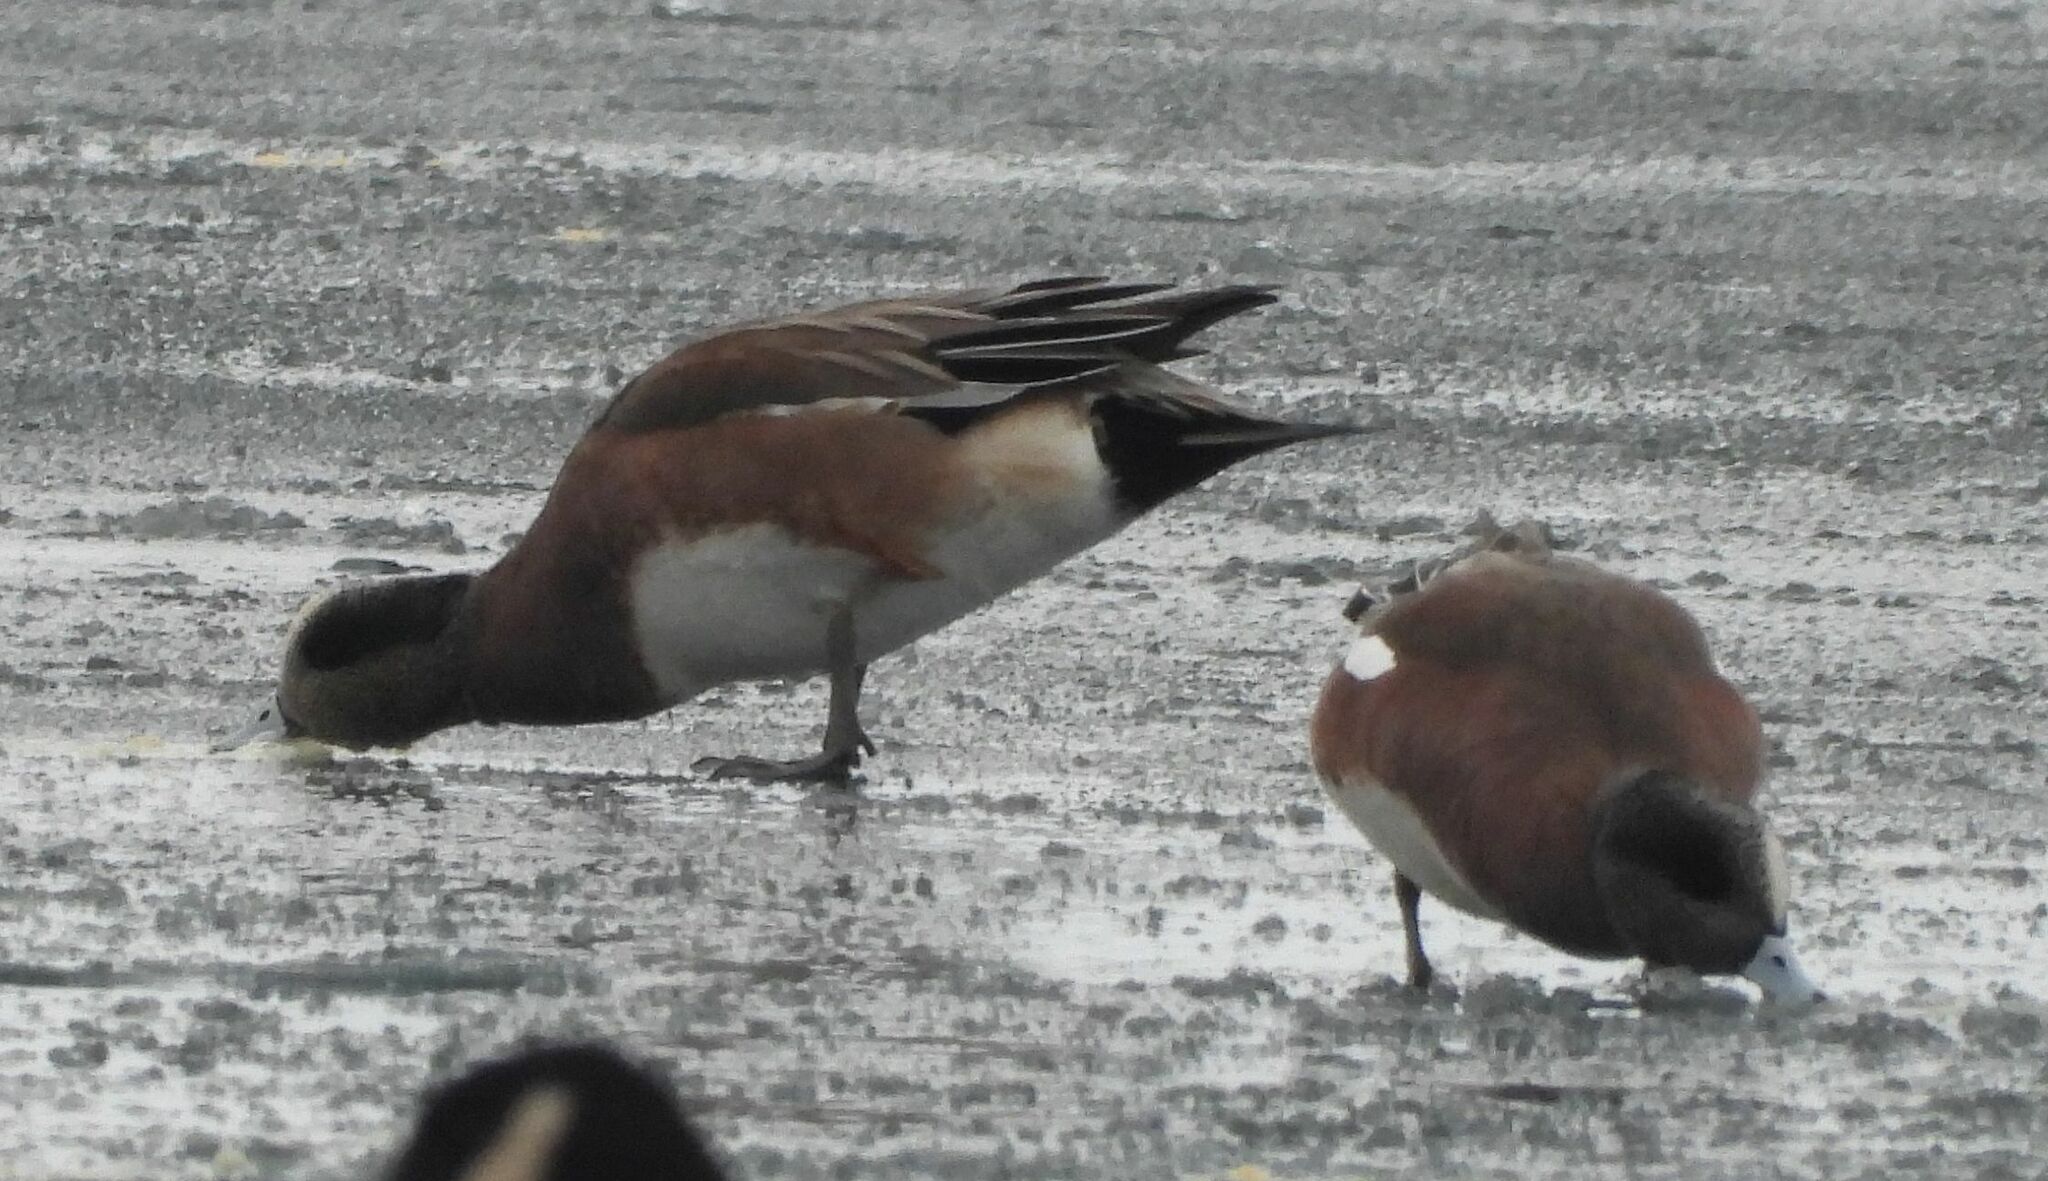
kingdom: Animalia
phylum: Chordata
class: Aves
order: Anseriformes
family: Anatidae
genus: Mareca
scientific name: Mareca americana
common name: American wigeon
